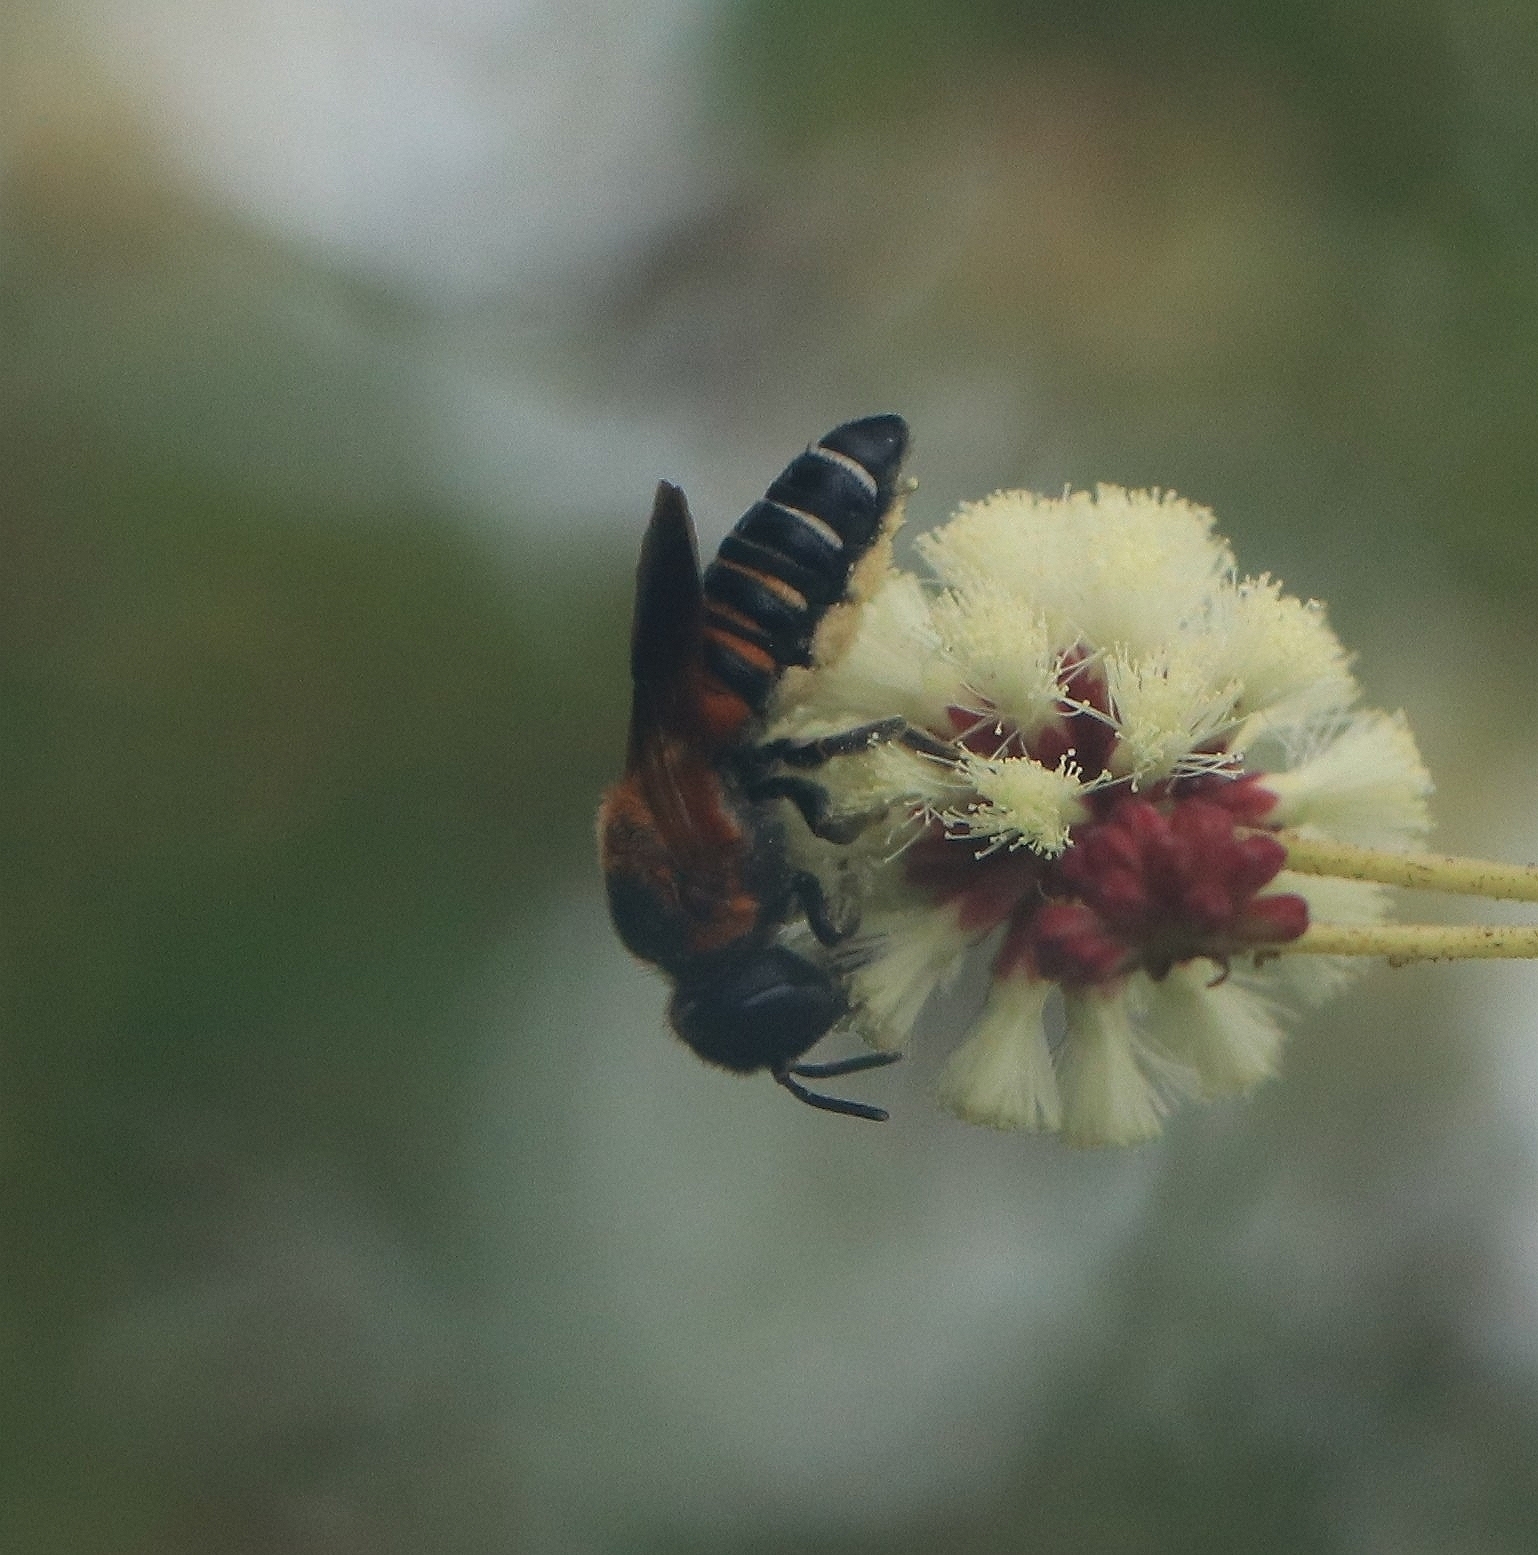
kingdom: Animalia
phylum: Arthropoda
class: Insecta
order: Hymenoptera
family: Megachilidae
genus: Megachile
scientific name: Megachile lerma
